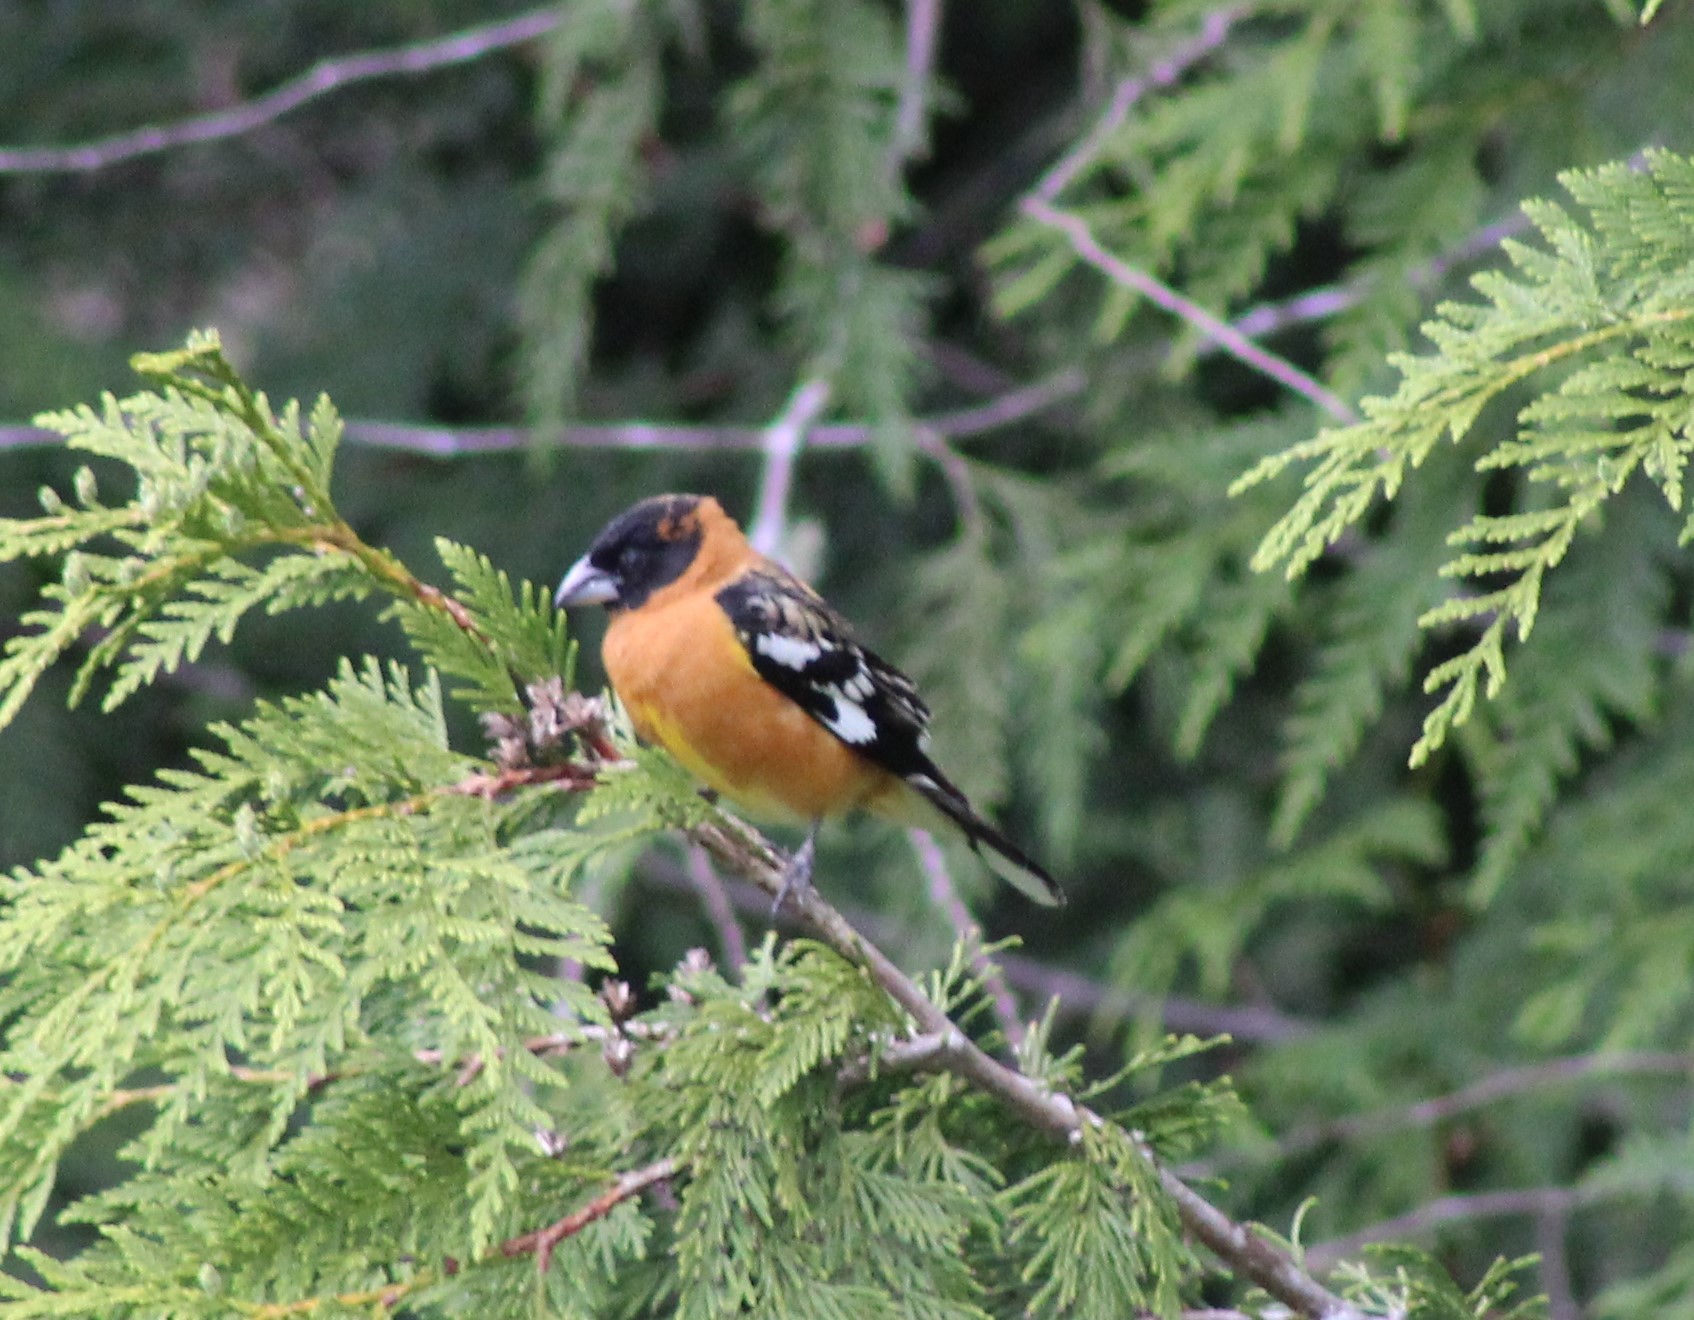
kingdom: Animalia
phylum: Chordata
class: Aves
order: Passeriformes
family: Cardinalidae
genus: Pheucticus
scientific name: Pheucticus melanocephalus
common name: Black-headed grosbeak
